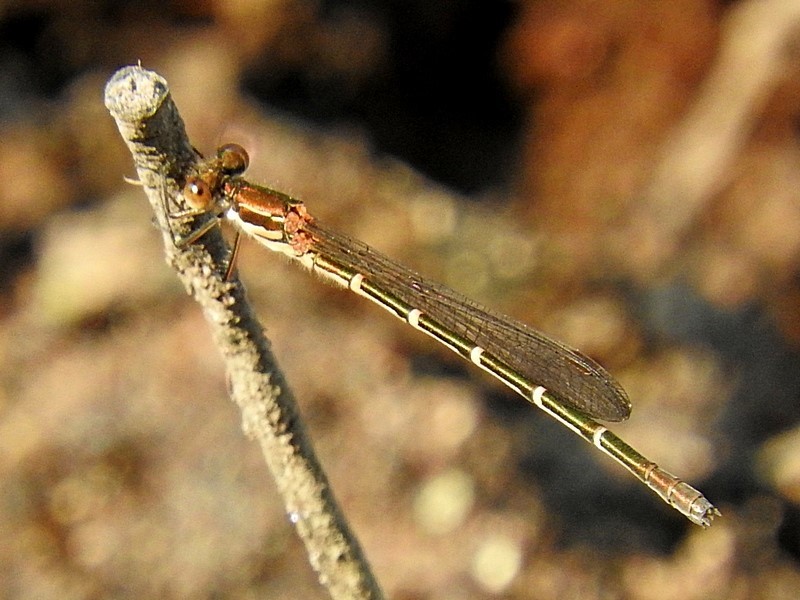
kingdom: Animalia
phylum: Arthropoda
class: Insecta
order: Odonata
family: Lestidae
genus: Austrolestes
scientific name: Austrolestes psyche
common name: Cup ringtail
